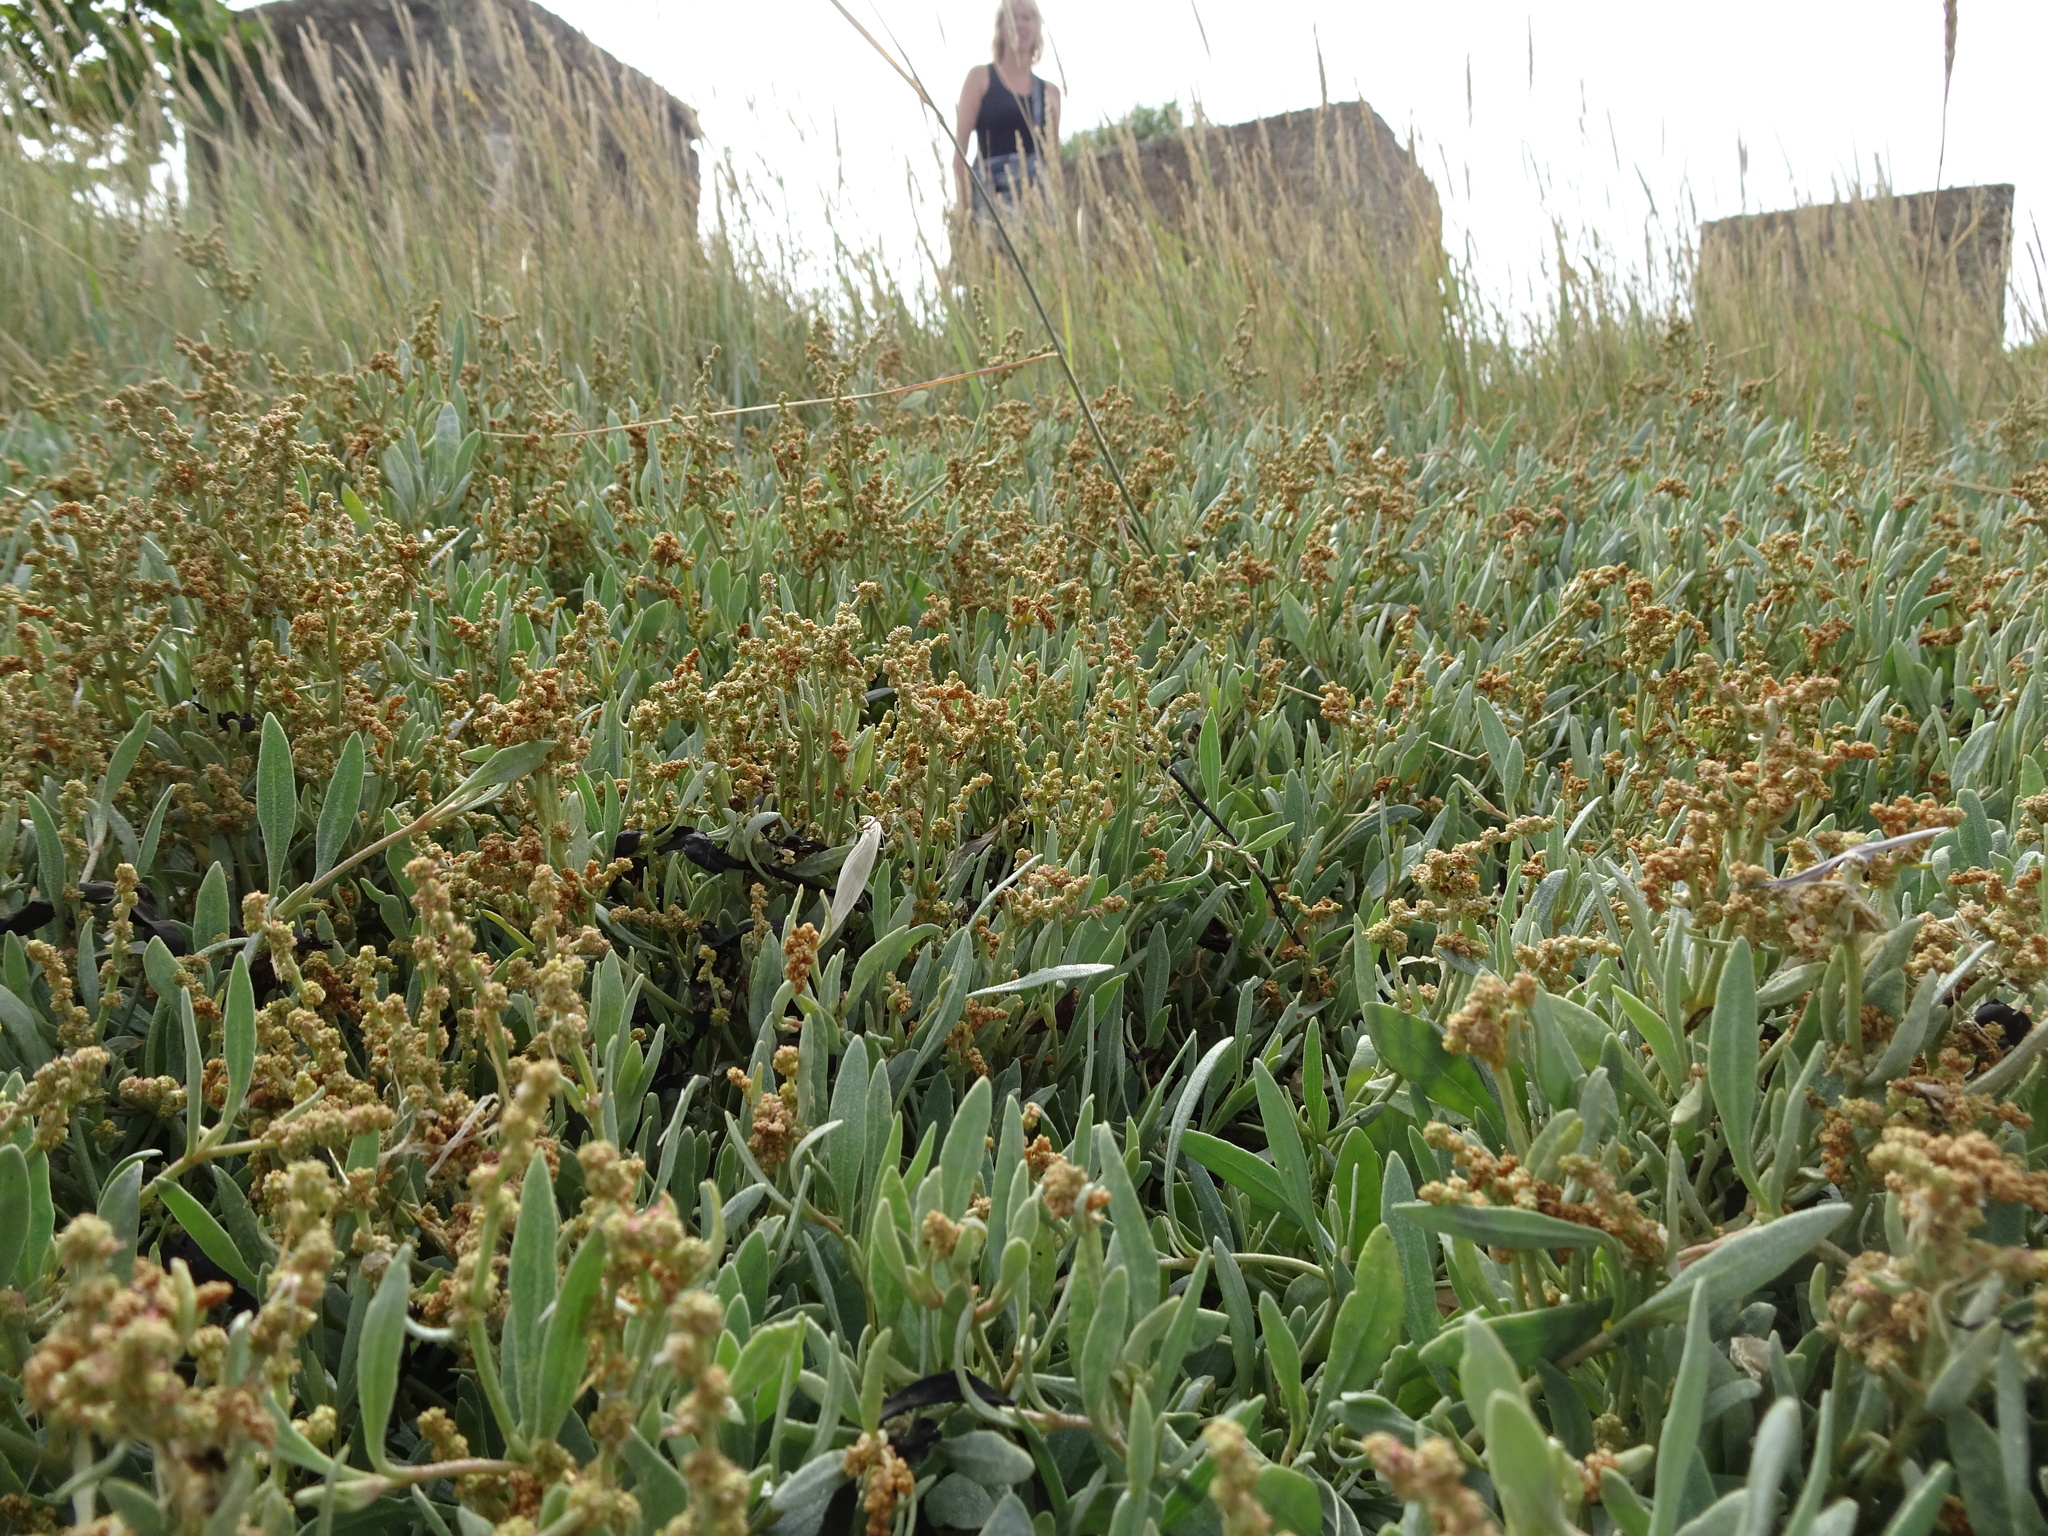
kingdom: Plantae
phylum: Tracheophyta
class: Magnoliopsida
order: Caryophyllales
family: Amaranthaceae
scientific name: Amaranthaceae
